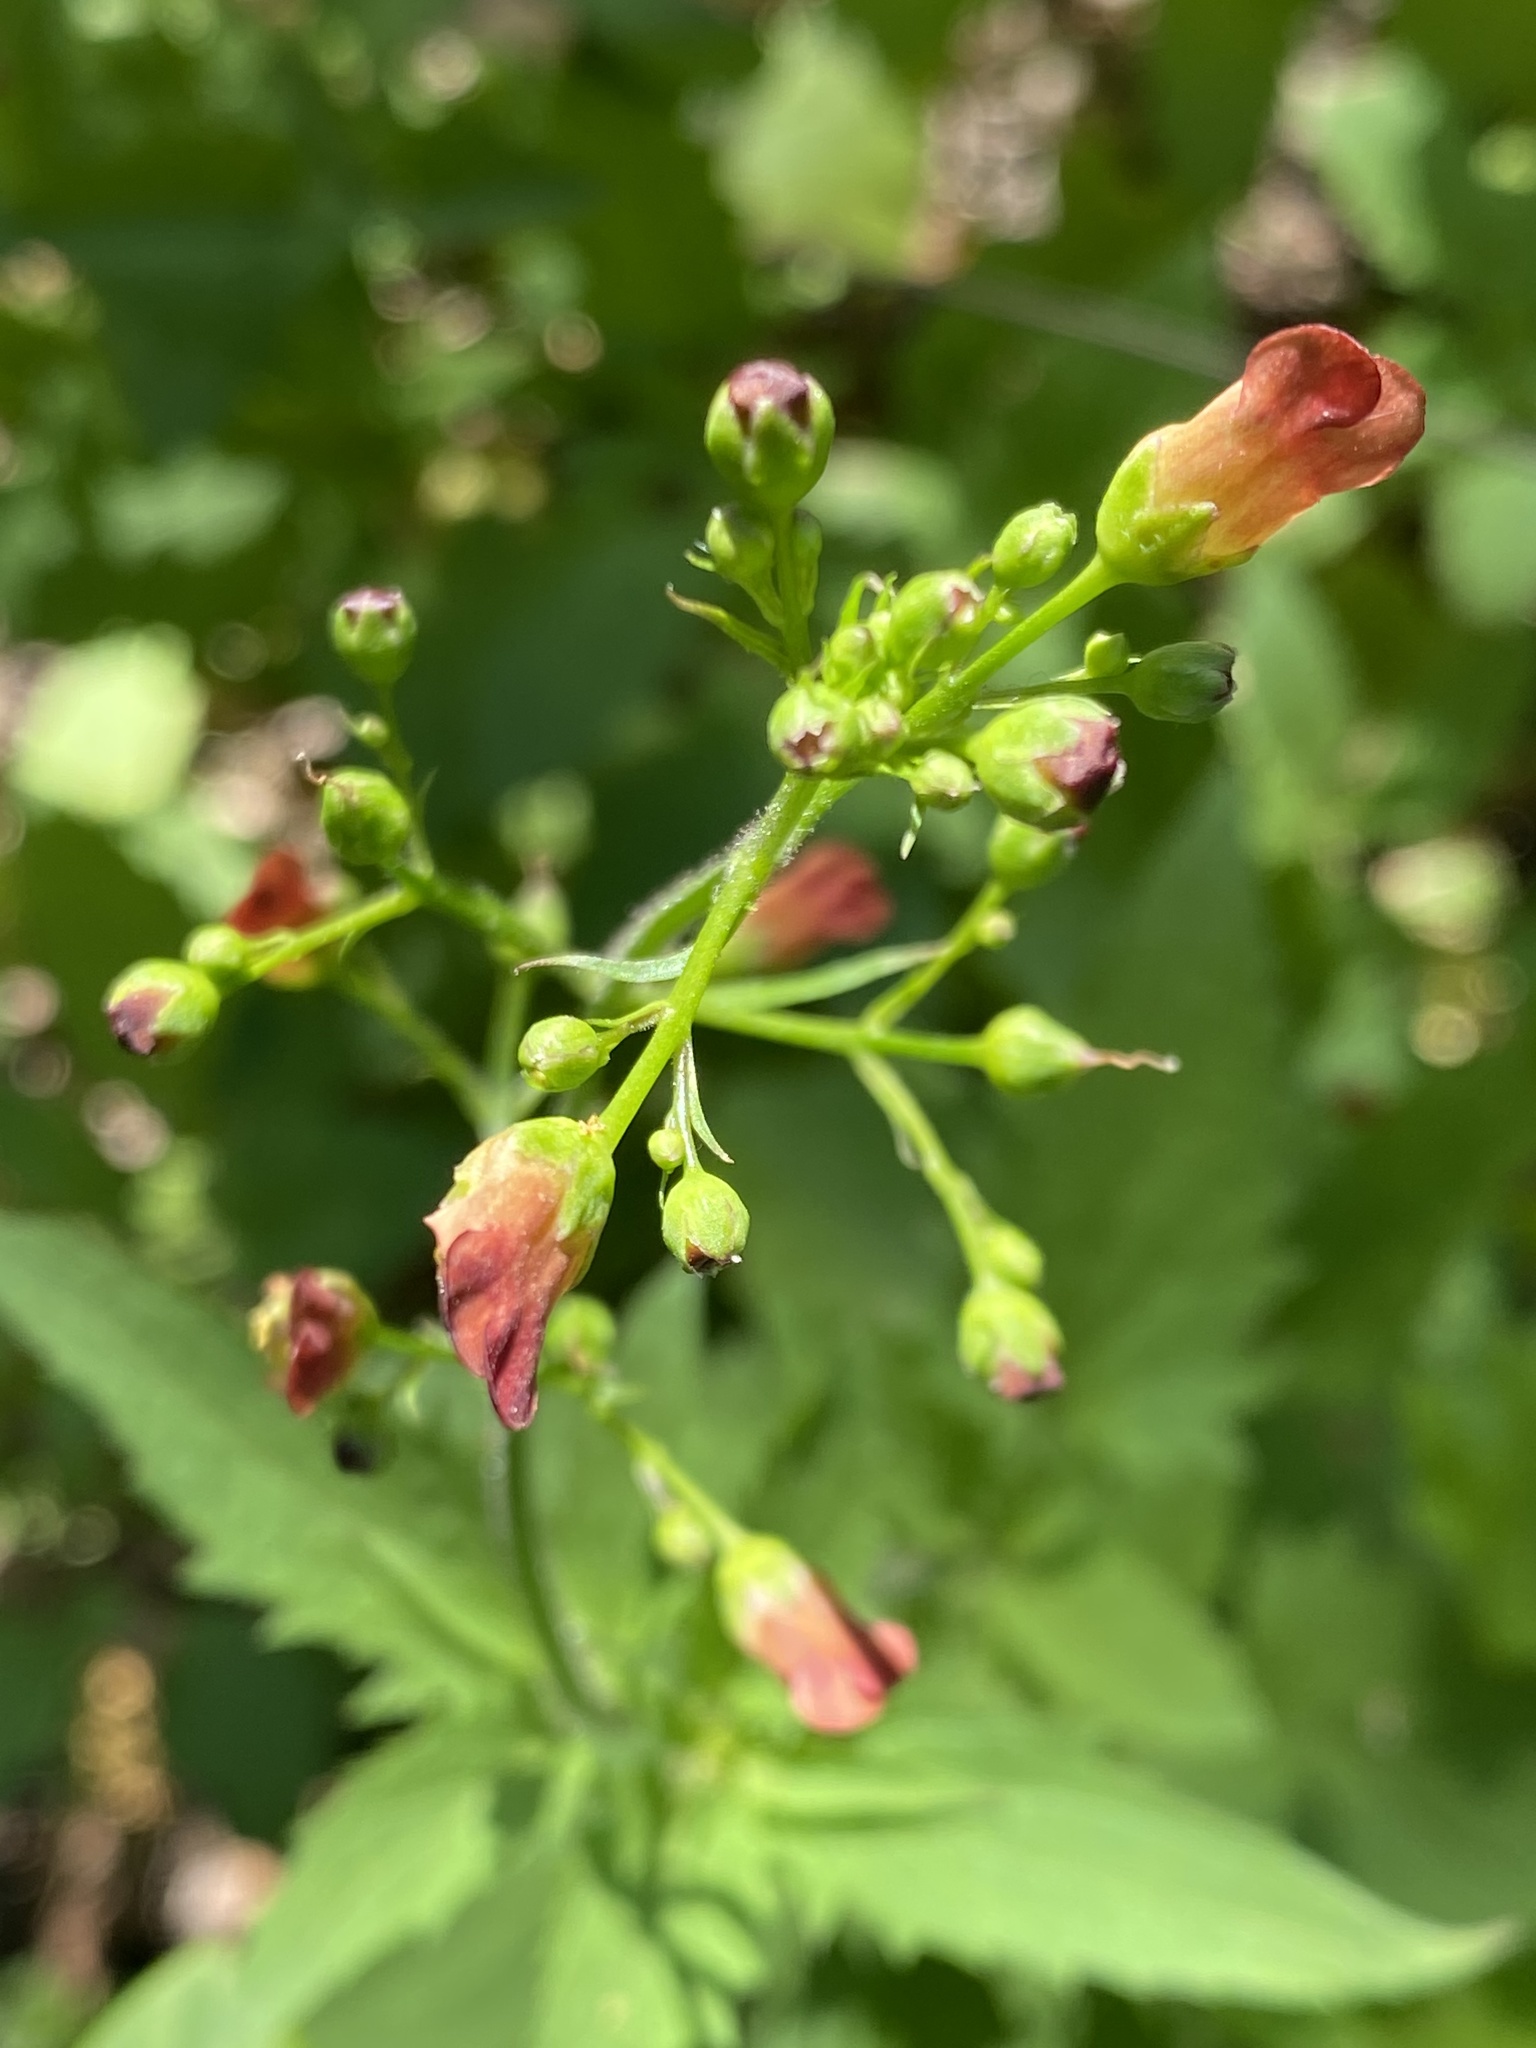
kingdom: Plantae
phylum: Tracheophyta
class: Magnoliopsida
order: Lamiales
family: Scrophulariaceae
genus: Scrophularia
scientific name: Scrophularia californica
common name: California figwort
